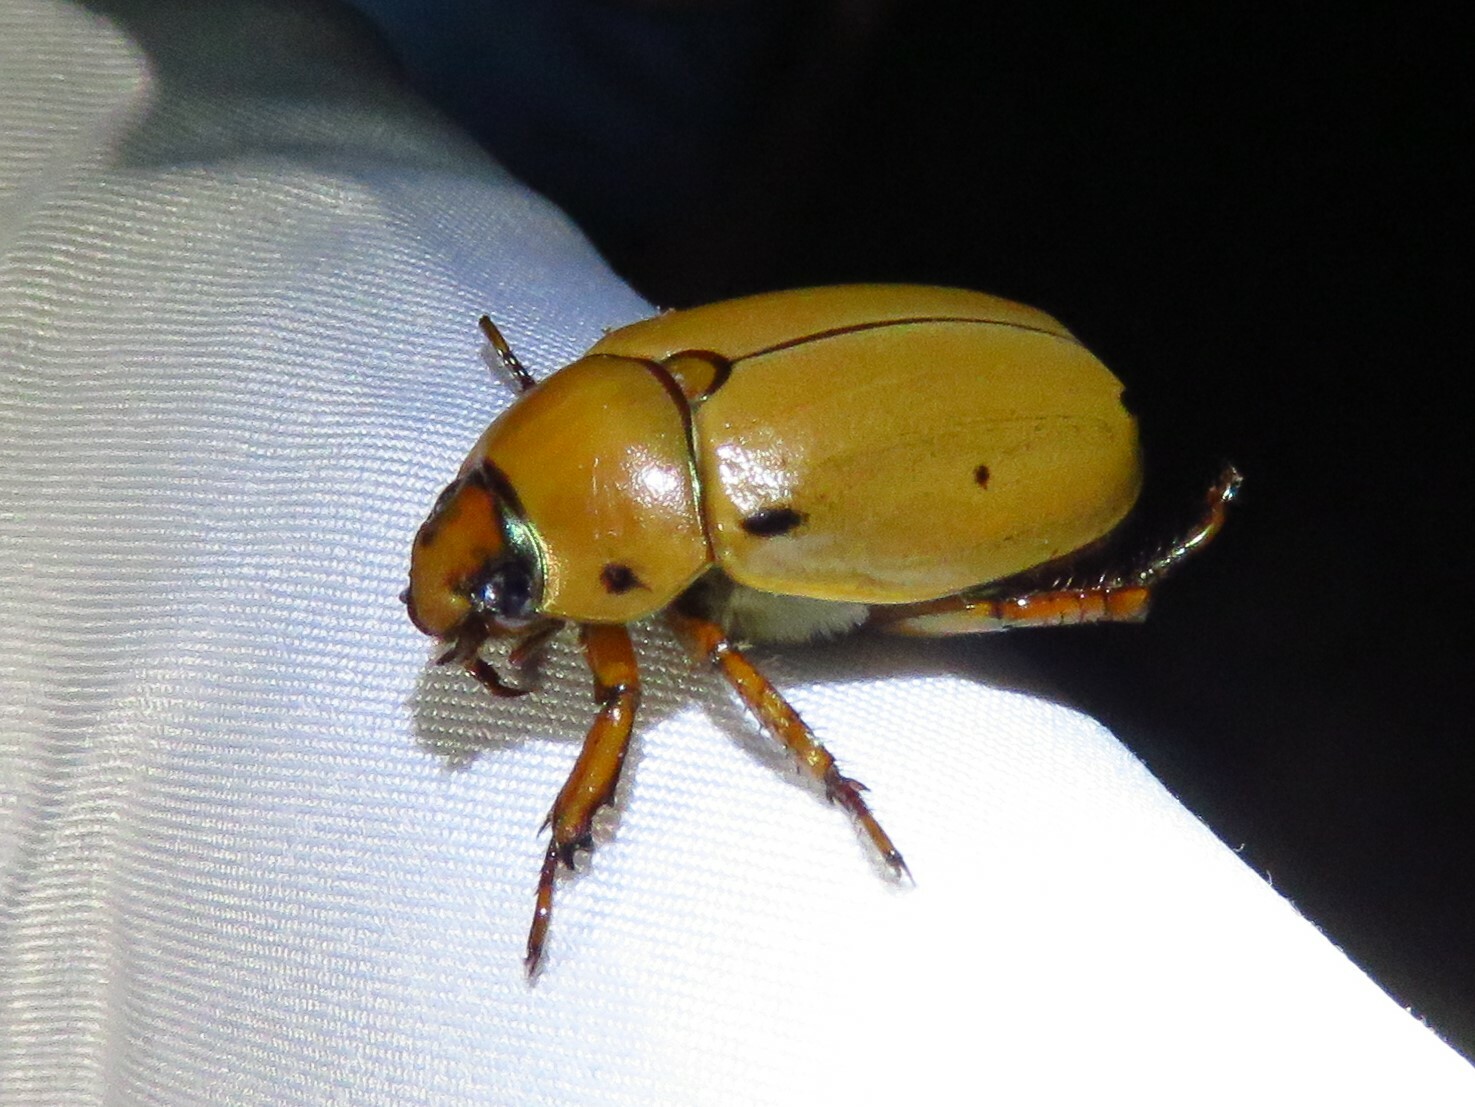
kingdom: Animalia
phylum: Arthropoda
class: Insecta
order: Coleoptera
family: Scarabaeidae
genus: Pelidnota
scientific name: Pelidnota punctata
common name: Grapevine beetle
